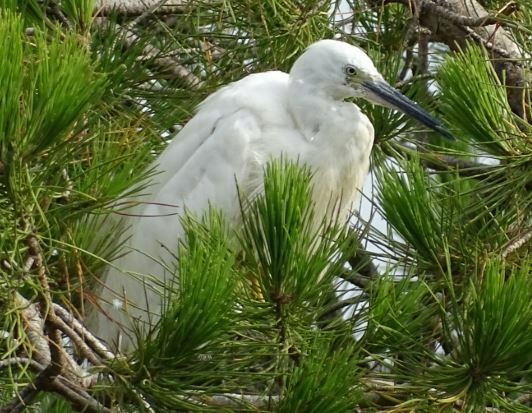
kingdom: Animalia
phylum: Chordata
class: Aves
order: Pelecaniformes
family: Ardeidae
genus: Egretta
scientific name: Egretta garzetta
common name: Little egret
